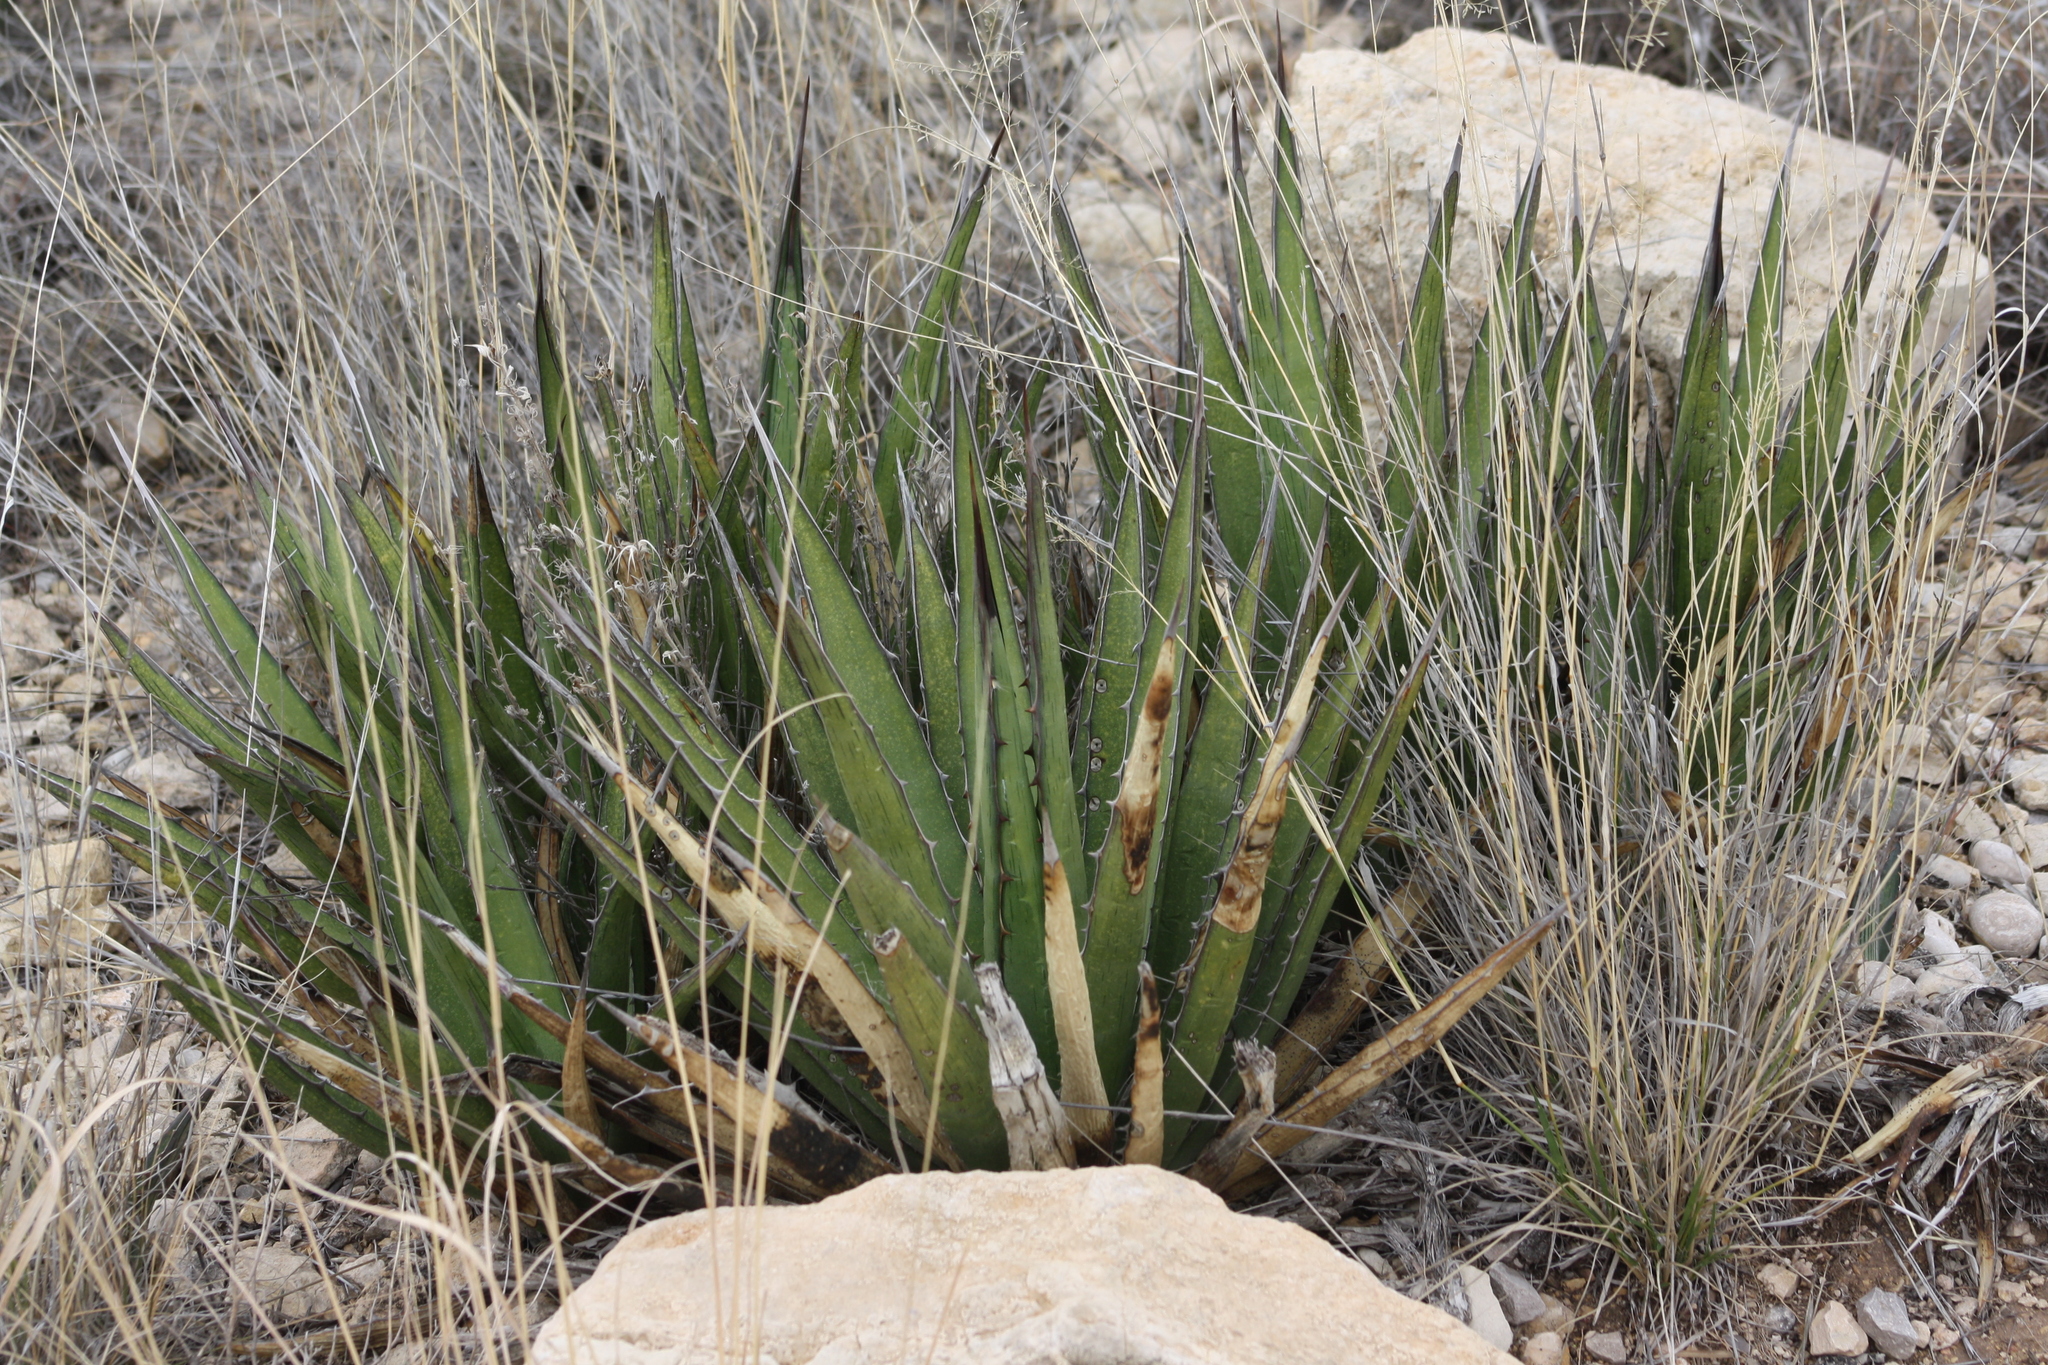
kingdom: Plantae
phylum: Tracheophyta
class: Liliopsida
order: Asparagales
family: Asparagaceae
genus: Agave
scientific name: Agave lechuguilla
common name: Lecheguilla agave
